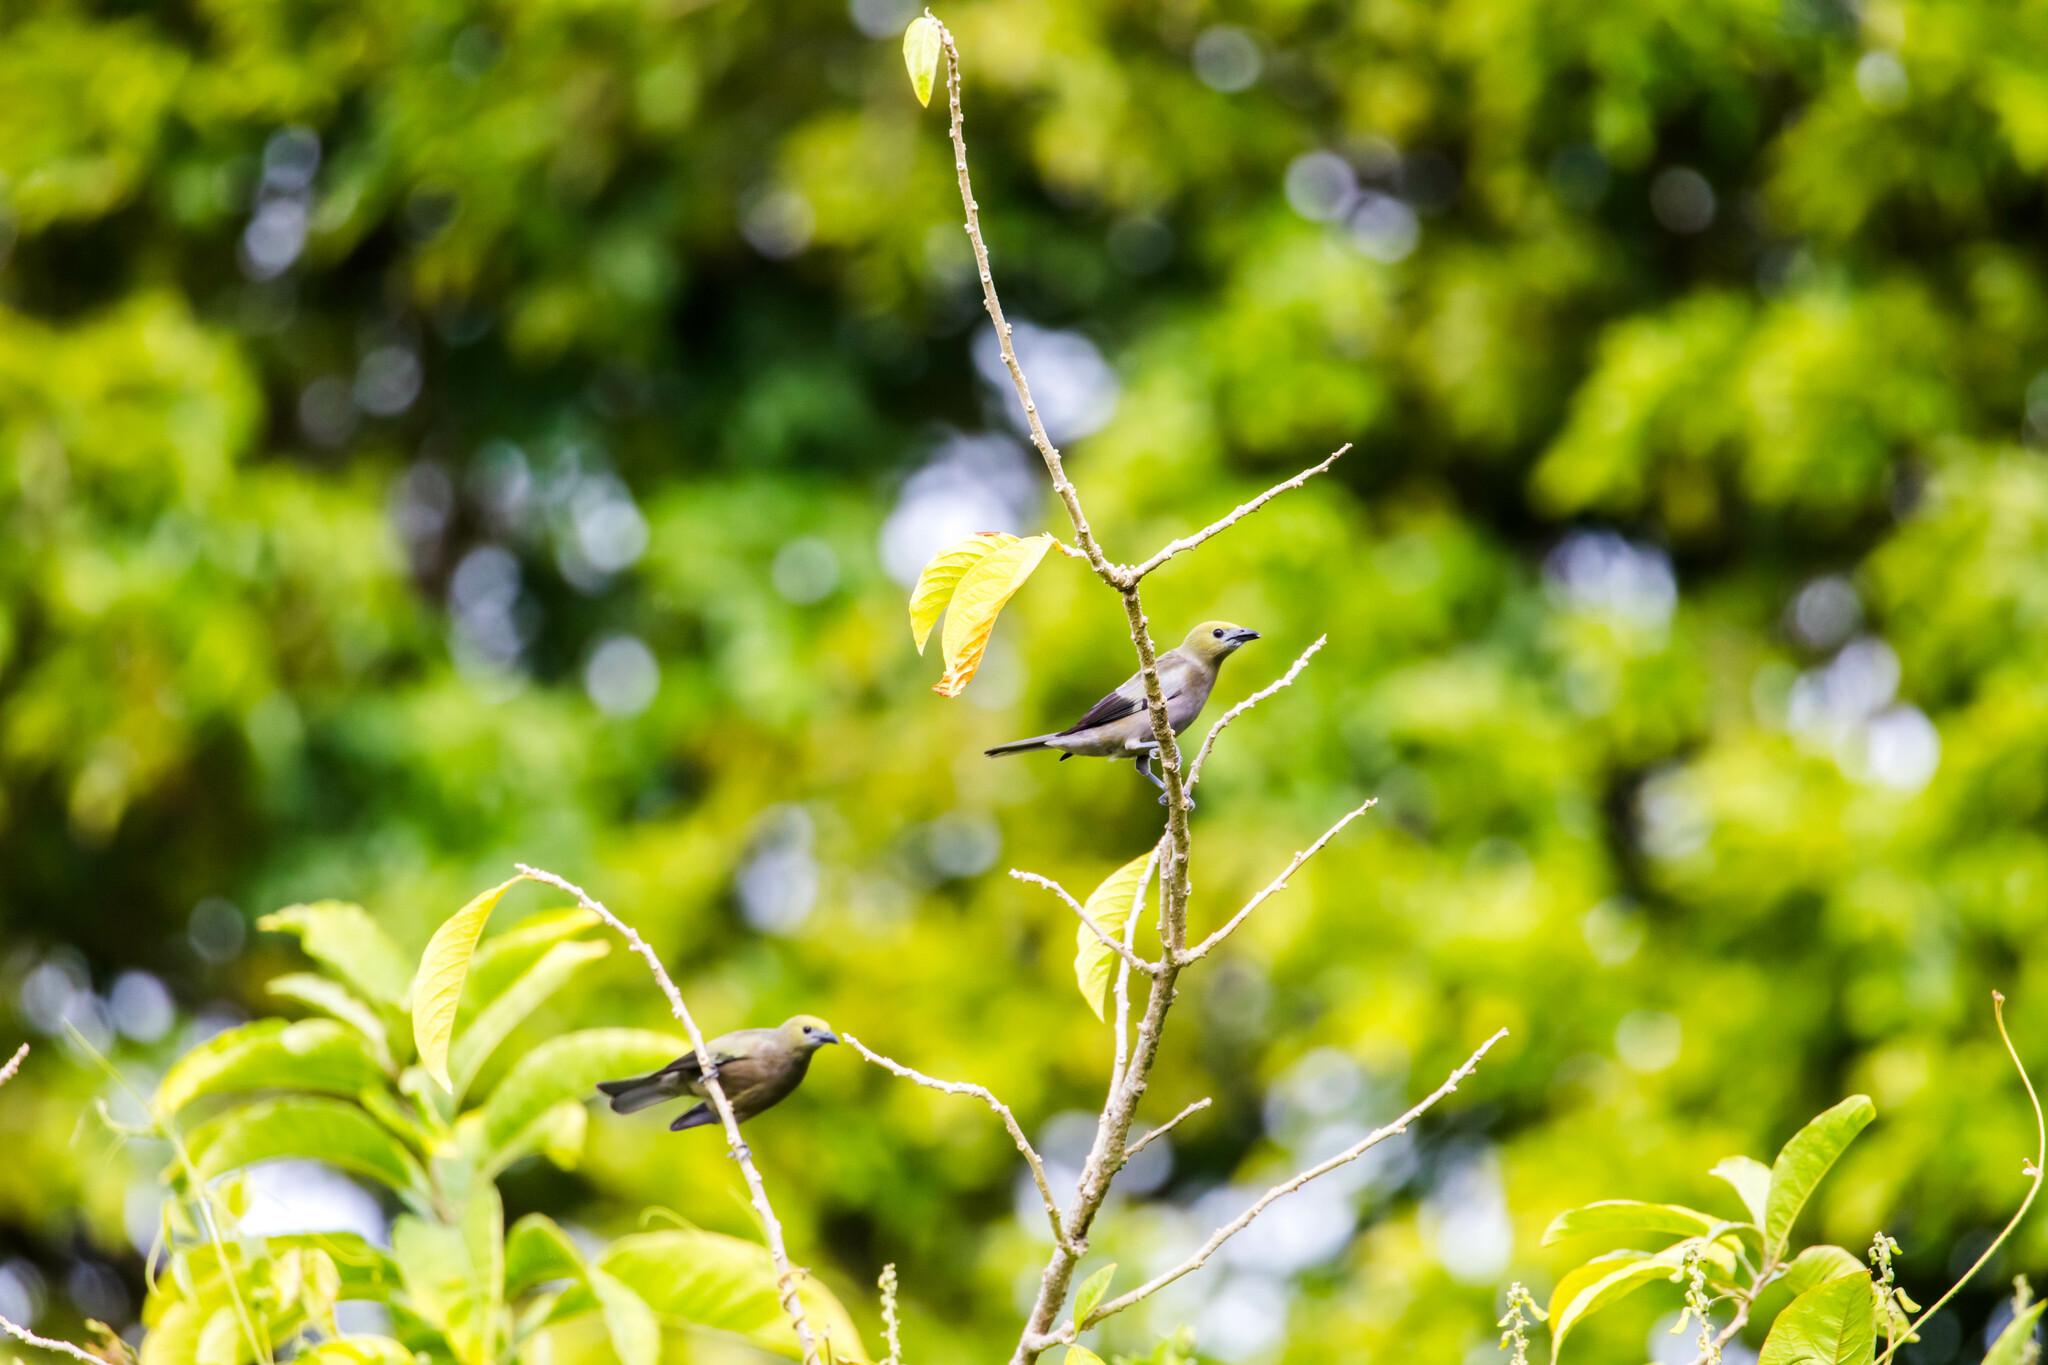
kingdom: Animalia
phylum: Chordata
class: Aves
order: Passeriformes
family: Thraupidae
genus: Thraupis
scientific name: Thraupis palmarum
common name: Palm tanager
